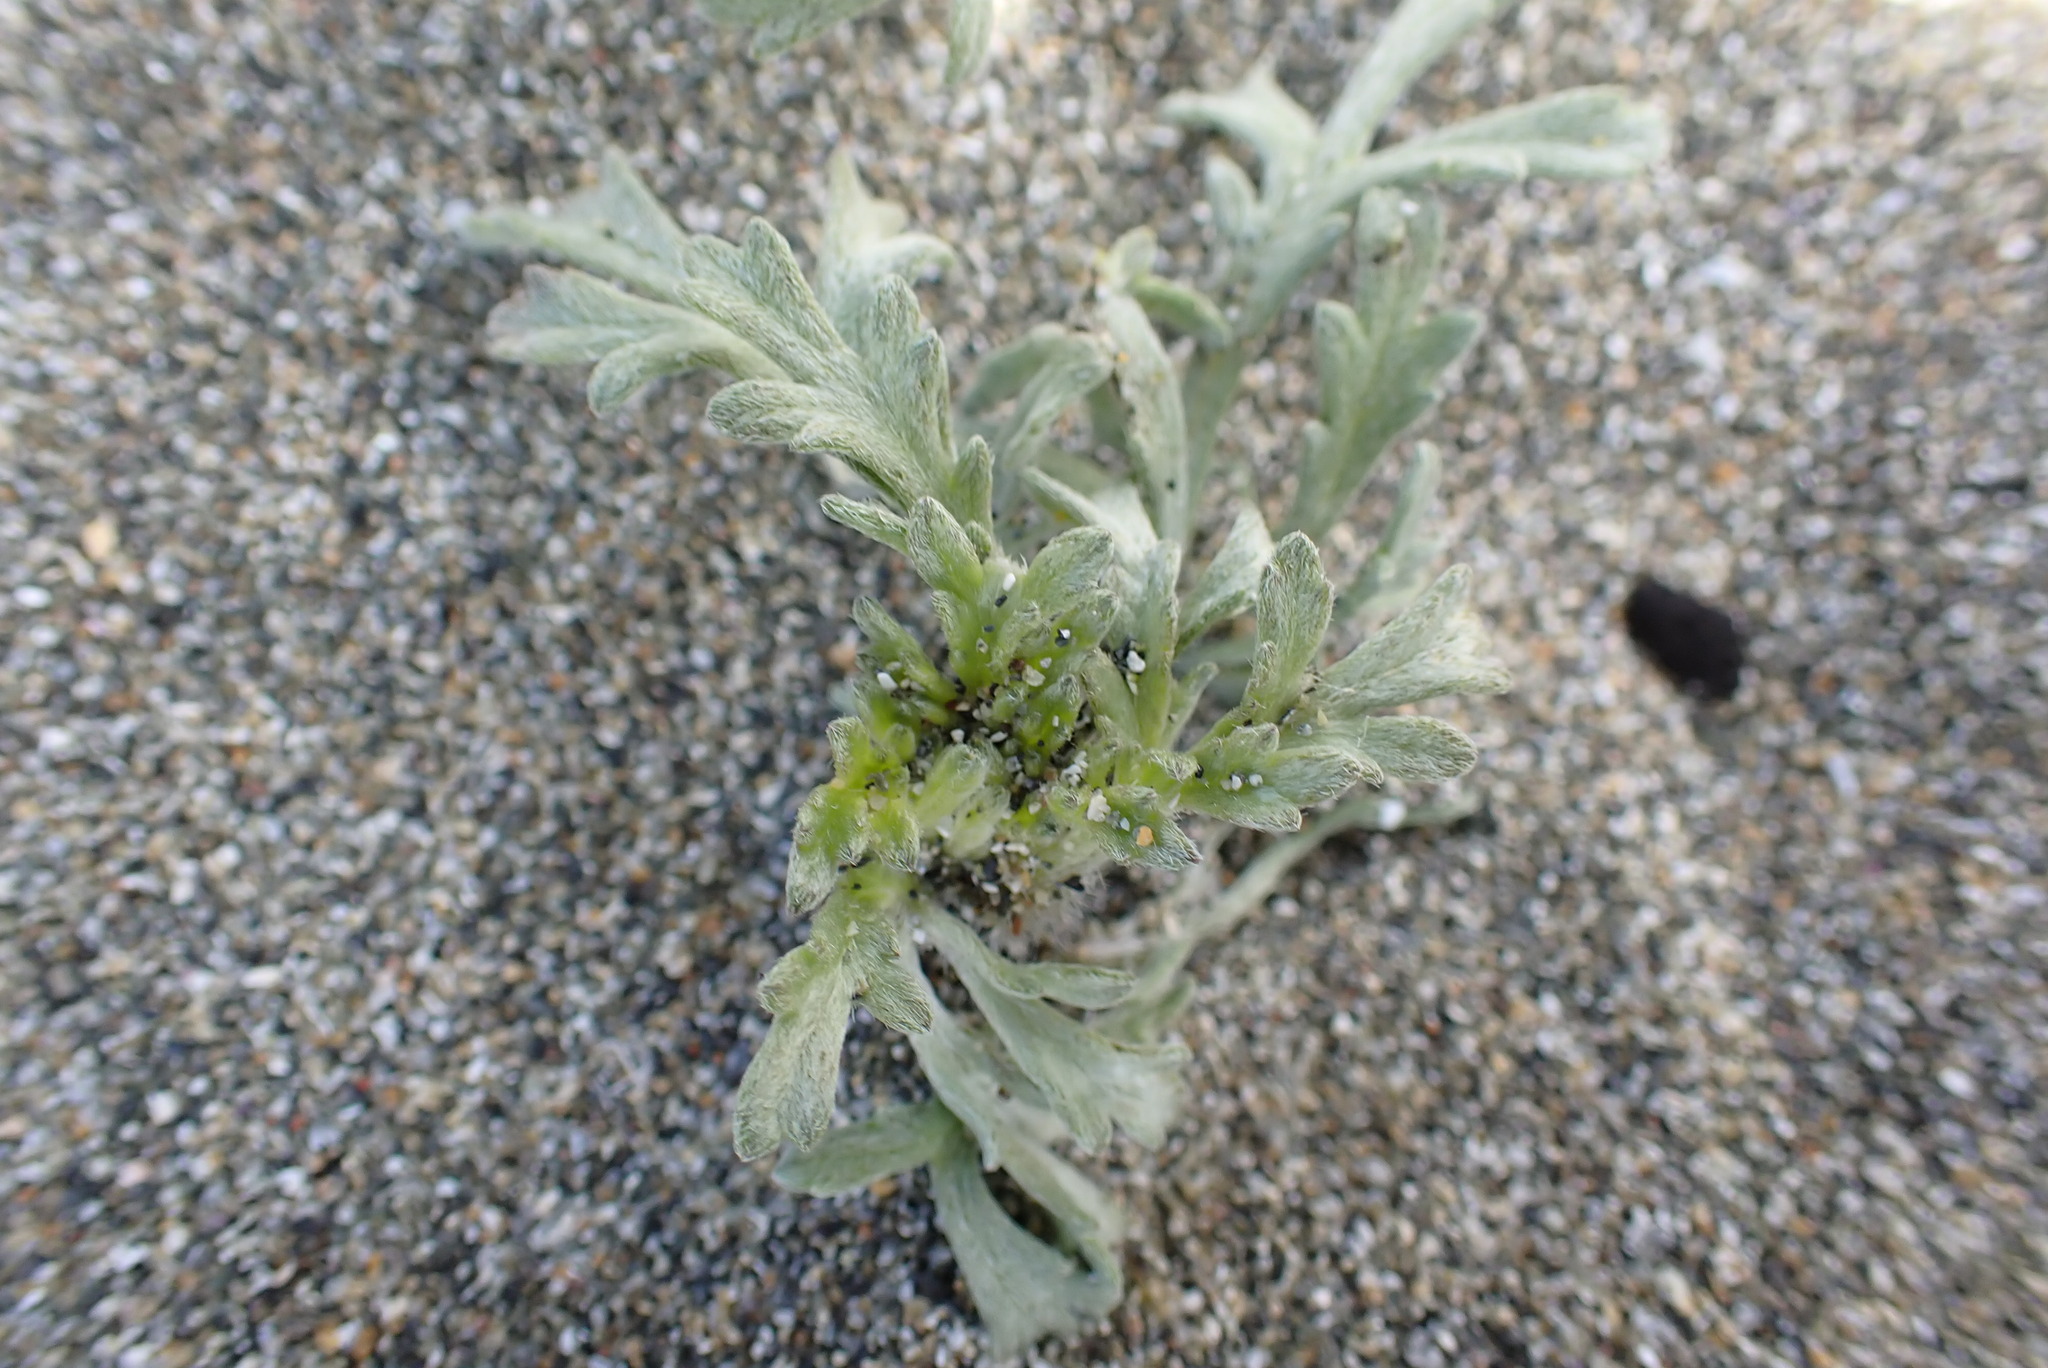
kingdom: Plantae
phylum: Tracheophyta
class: Magnoliopsida
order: Asterales
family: Asteraceae
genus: Ambrosia
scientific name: Ambrosia chamissonis
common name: Beachbur
